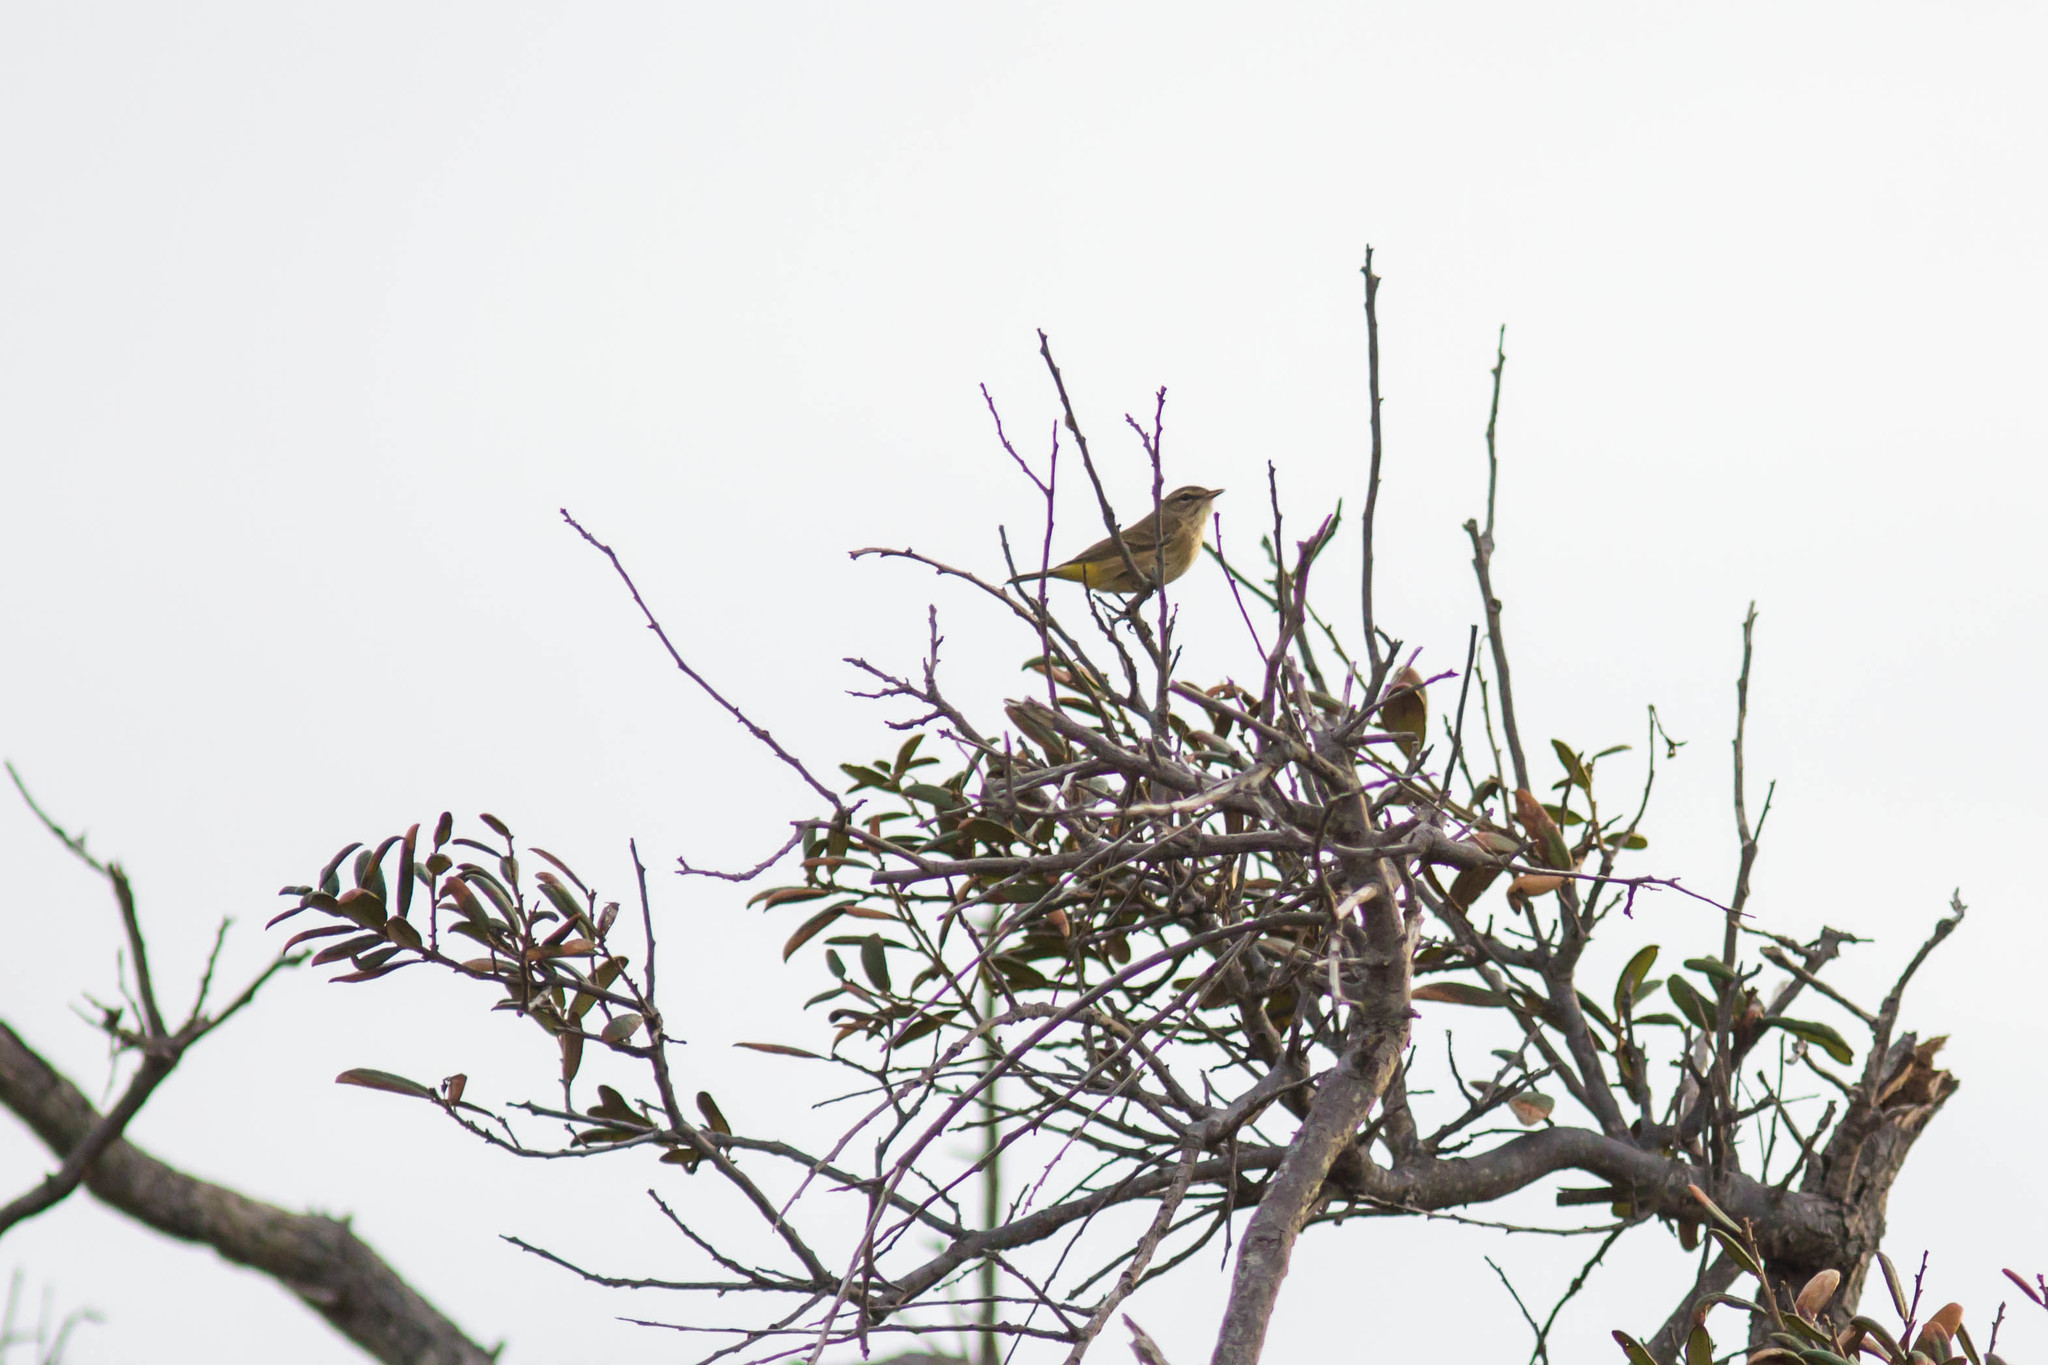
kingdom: Animalia
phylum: Chordata
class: Aves
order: Passeriformes
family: Parulidae
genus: Setophaga
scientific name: Setophaga palmarum
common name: Palm warbler
